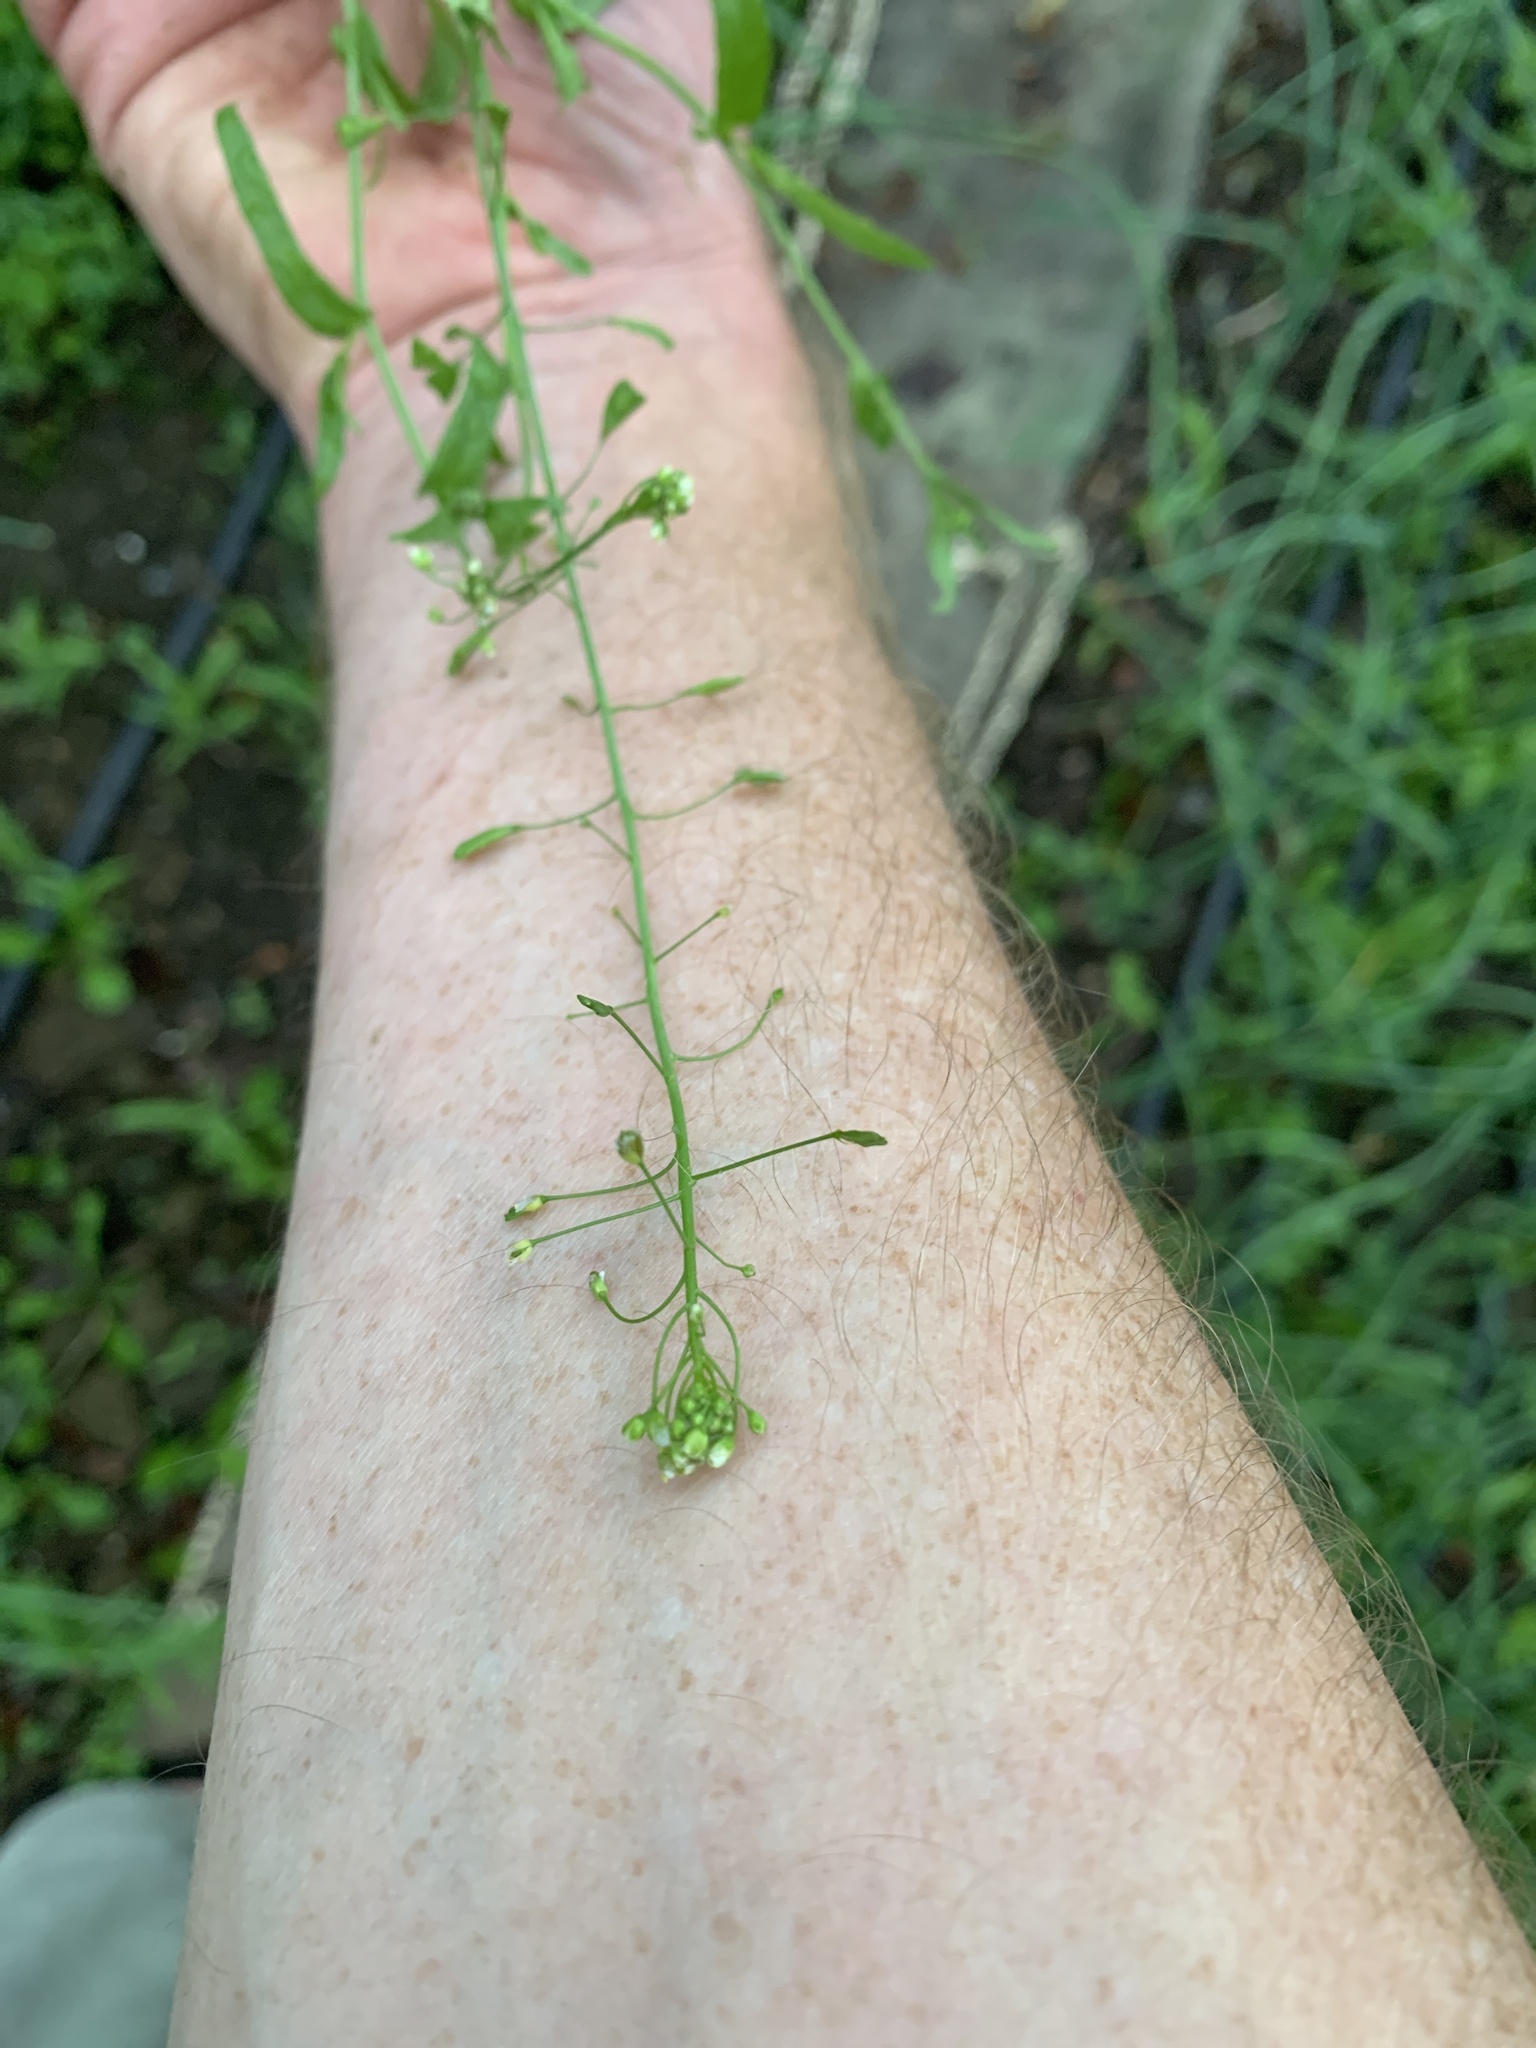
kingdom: Plantae
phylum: Tracheophyta
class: Magnoliopsida
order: Brassicales
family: Brassicaceae
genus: Capsella
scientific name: Capsella bursa-pastoris
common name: Shepherd's purse
